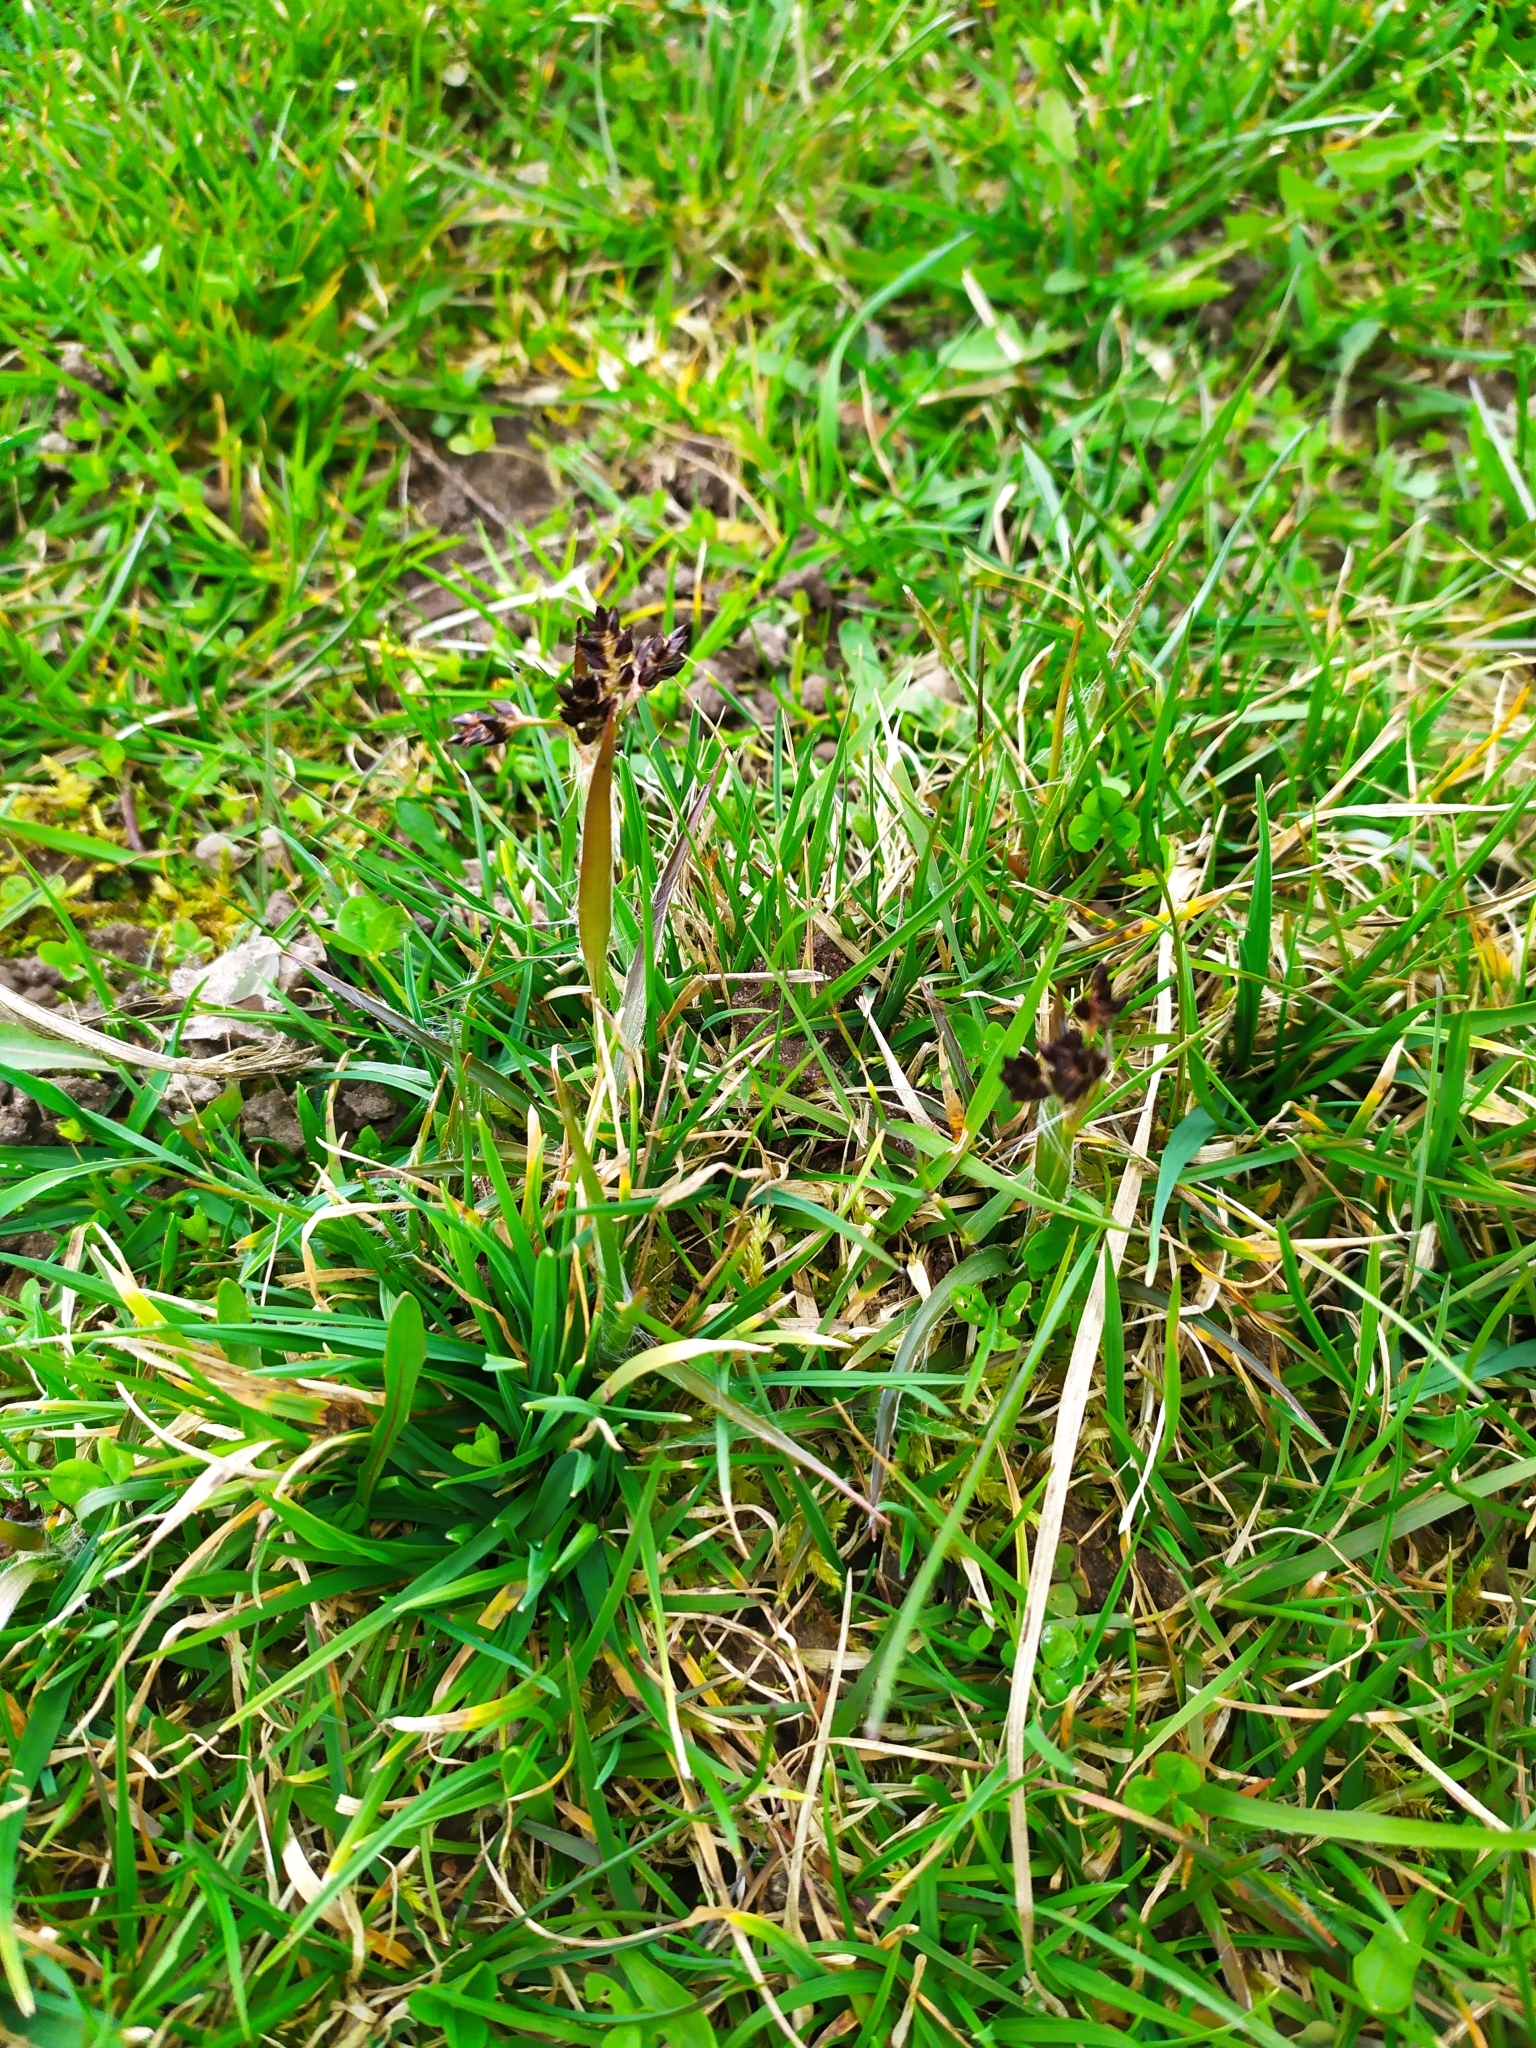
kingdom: Plantae
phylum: Tracheophyta
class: Liliopsida
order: Poales
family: Juncaceae
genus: Luzula
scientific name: Luzula campestris
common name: Field wood-rush
